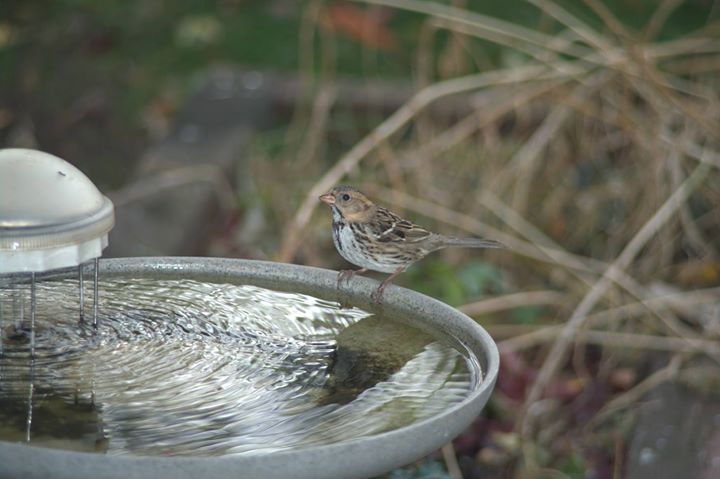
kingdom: Animalia
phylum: Chordata
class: Aves
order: Passeriformes
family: Passerellidae
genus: Zonotrichia
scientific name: Zonotrichia querula
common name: Harris's sparrow
